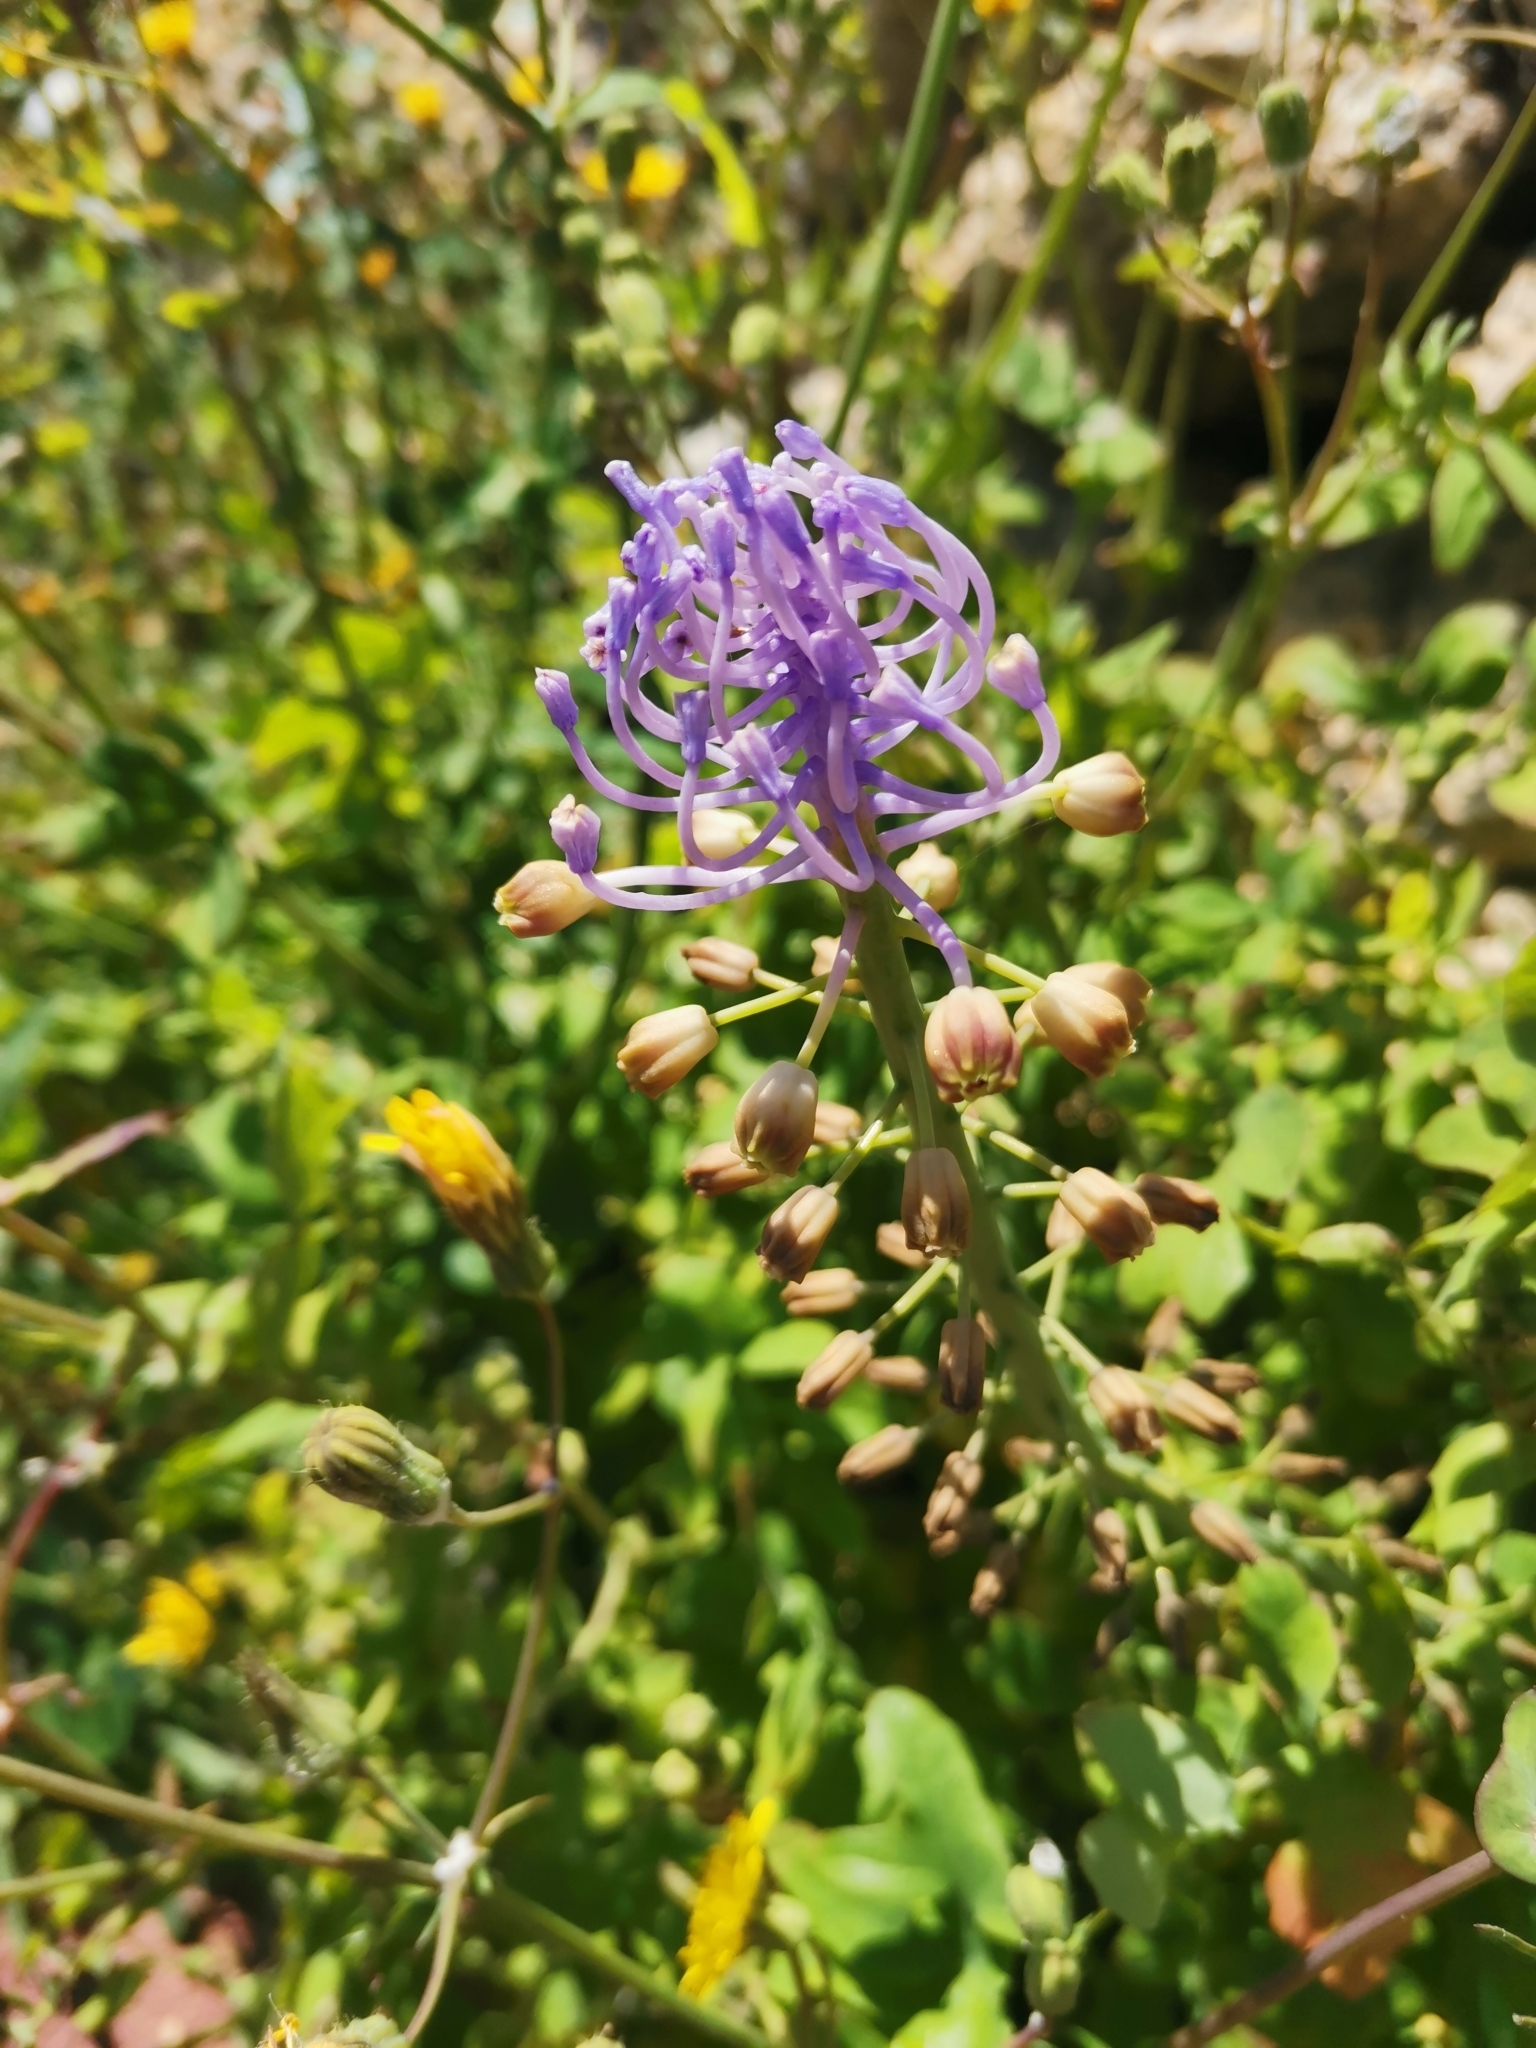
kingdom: Plantae
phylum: Tracheophyta
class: Liliopsida
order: Asparagales
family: Asparagaceae
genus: Muscari
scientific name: Muscari comosum
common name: Tassel hyacinth
